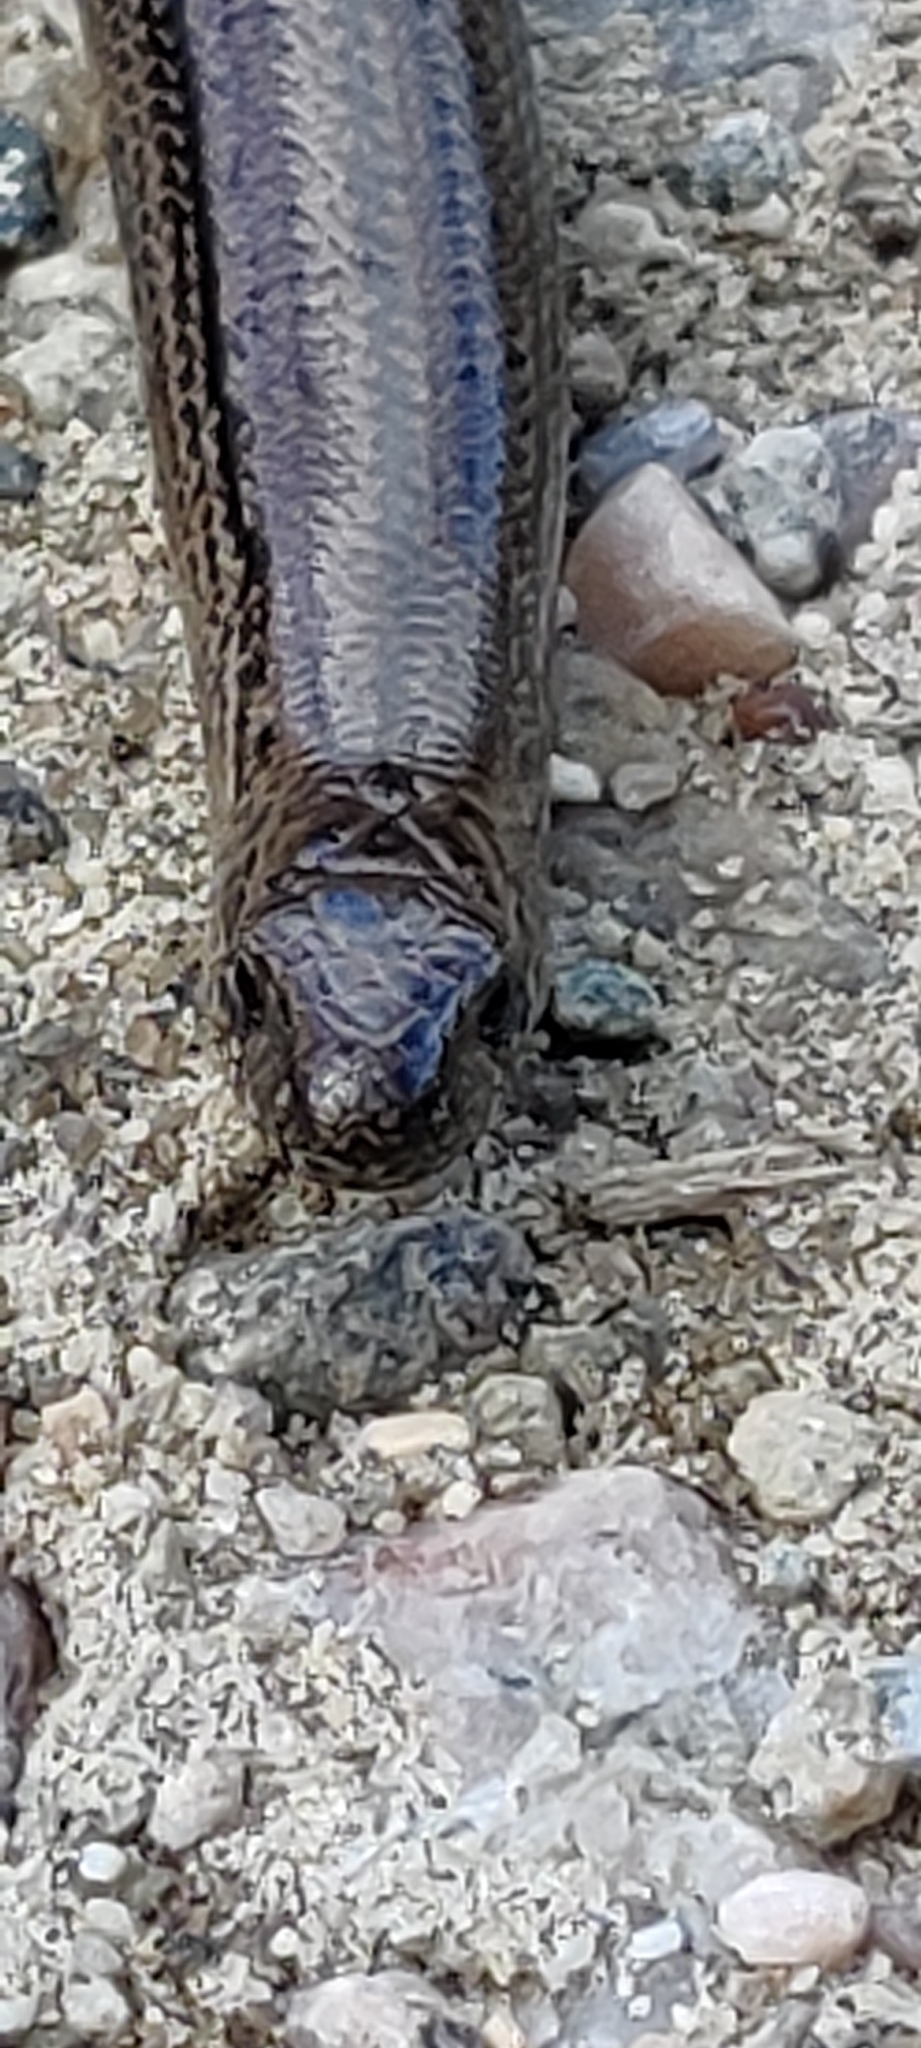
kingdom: Animalia
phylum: Chordata
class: Squamata
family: Anguidae
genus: Anguis
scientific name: Anguis fragilis
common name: Slow worm
